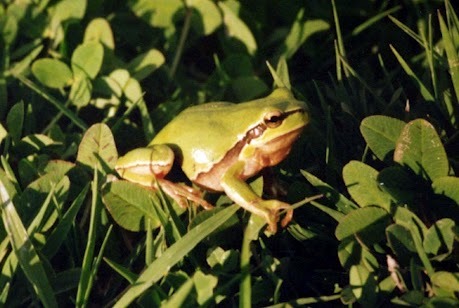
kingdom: Animalia
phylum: Chordata
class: Amphibia
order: Anura
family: Hylidae
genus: Hyla
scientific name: Hyla savignyi
